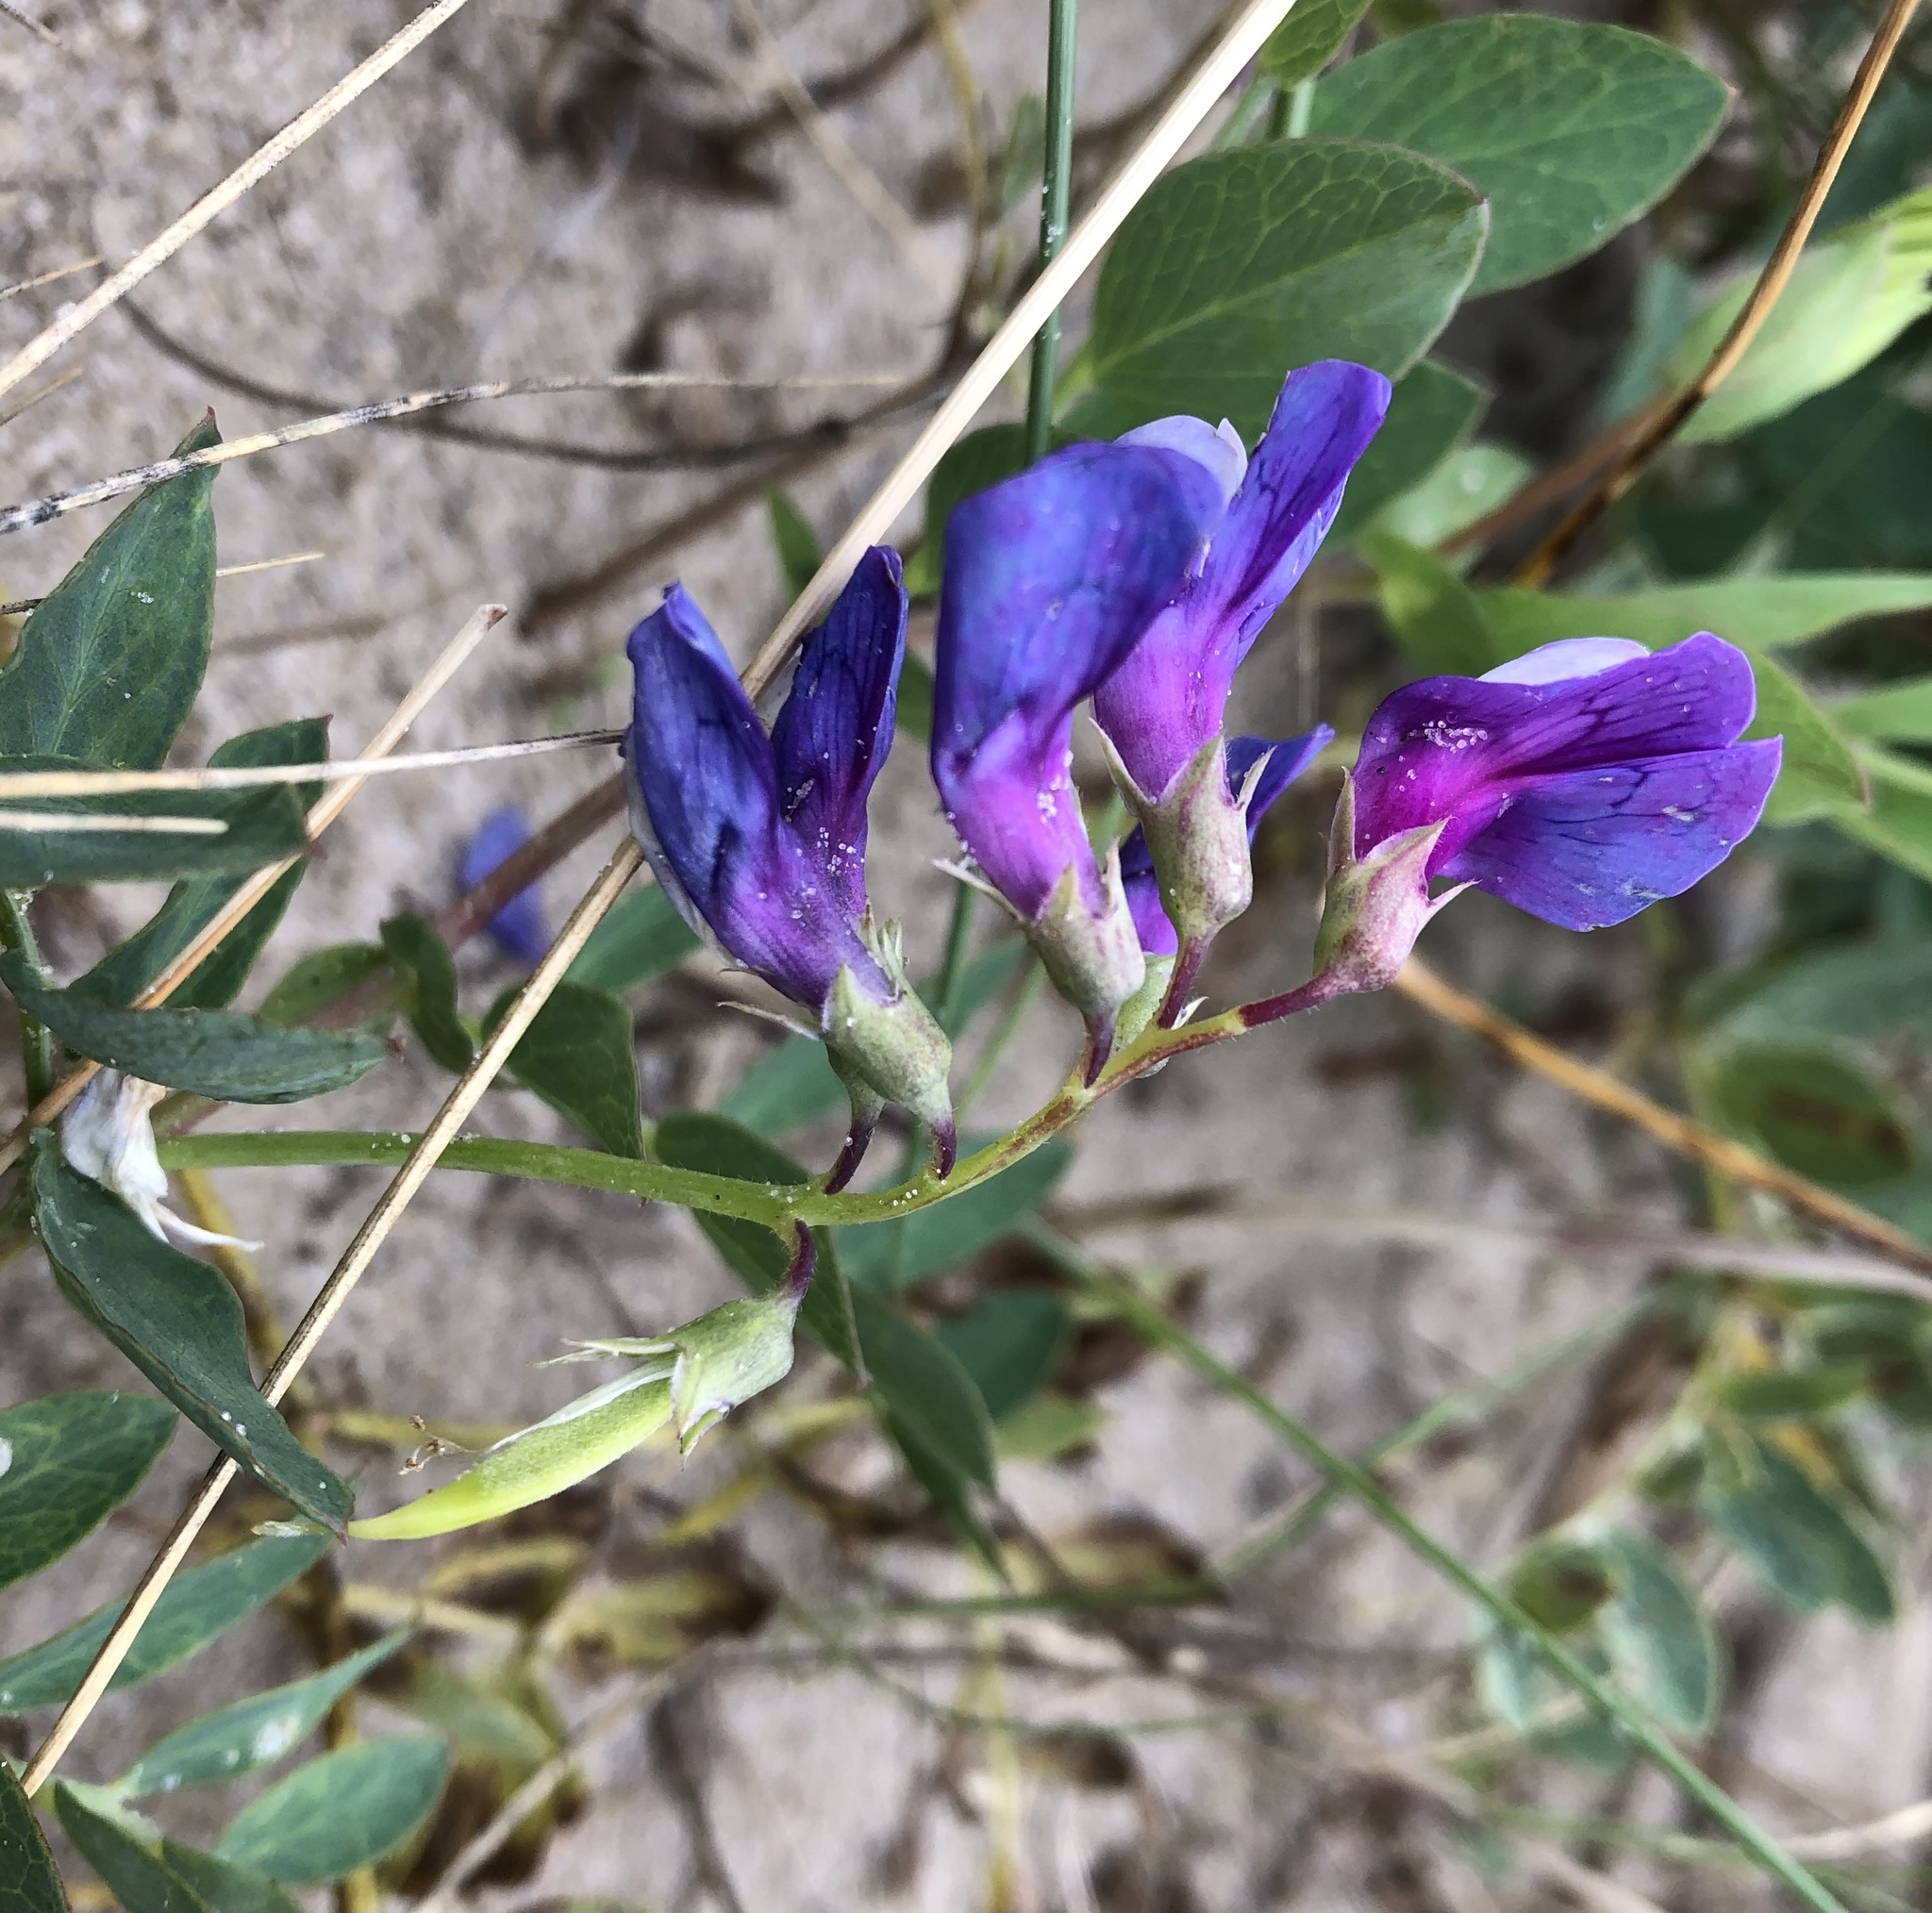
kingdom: Plantae
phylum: Tracheophyta
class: Magnoliopsida
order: Fabales
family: Fabaceae
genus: Lathyrus
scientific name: Lathyrus japonicus
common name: Sea pea
